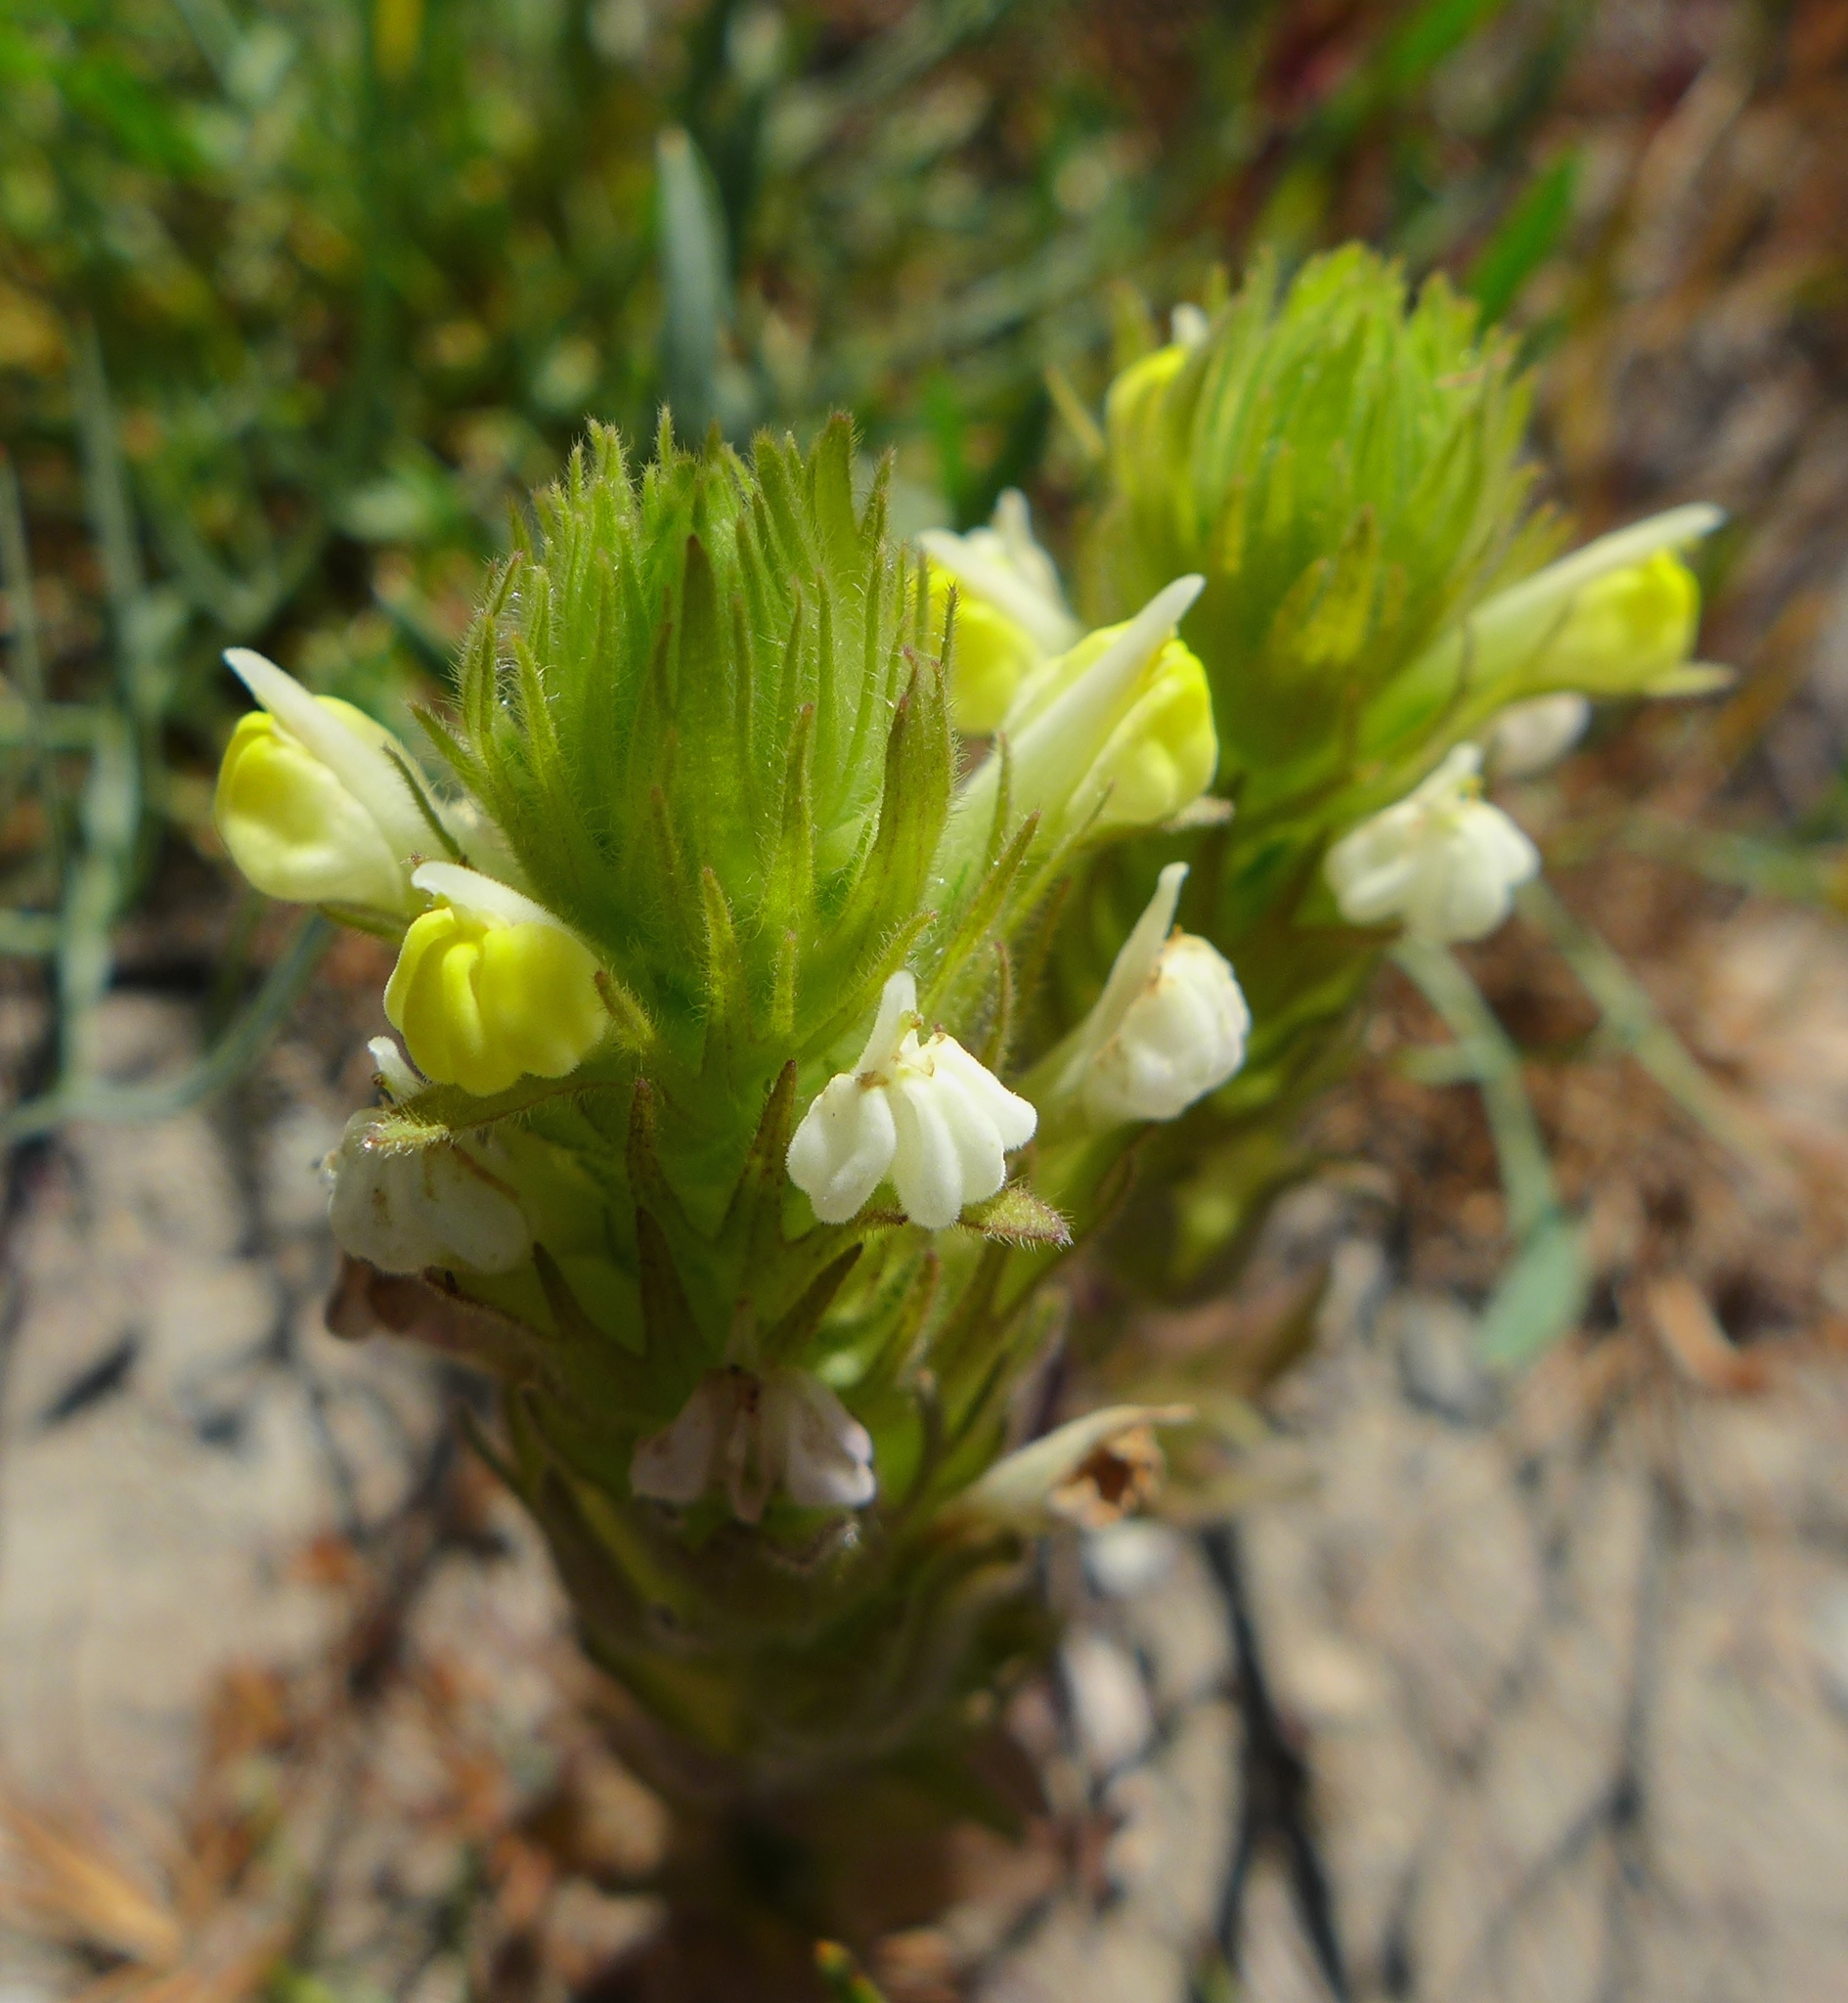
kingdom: Plantae
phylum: Tracheophyta
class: Magnoliopsida
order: Lamiales
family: Orobanchaceae
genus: Castilleja
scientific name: Castilleja rubicundula
